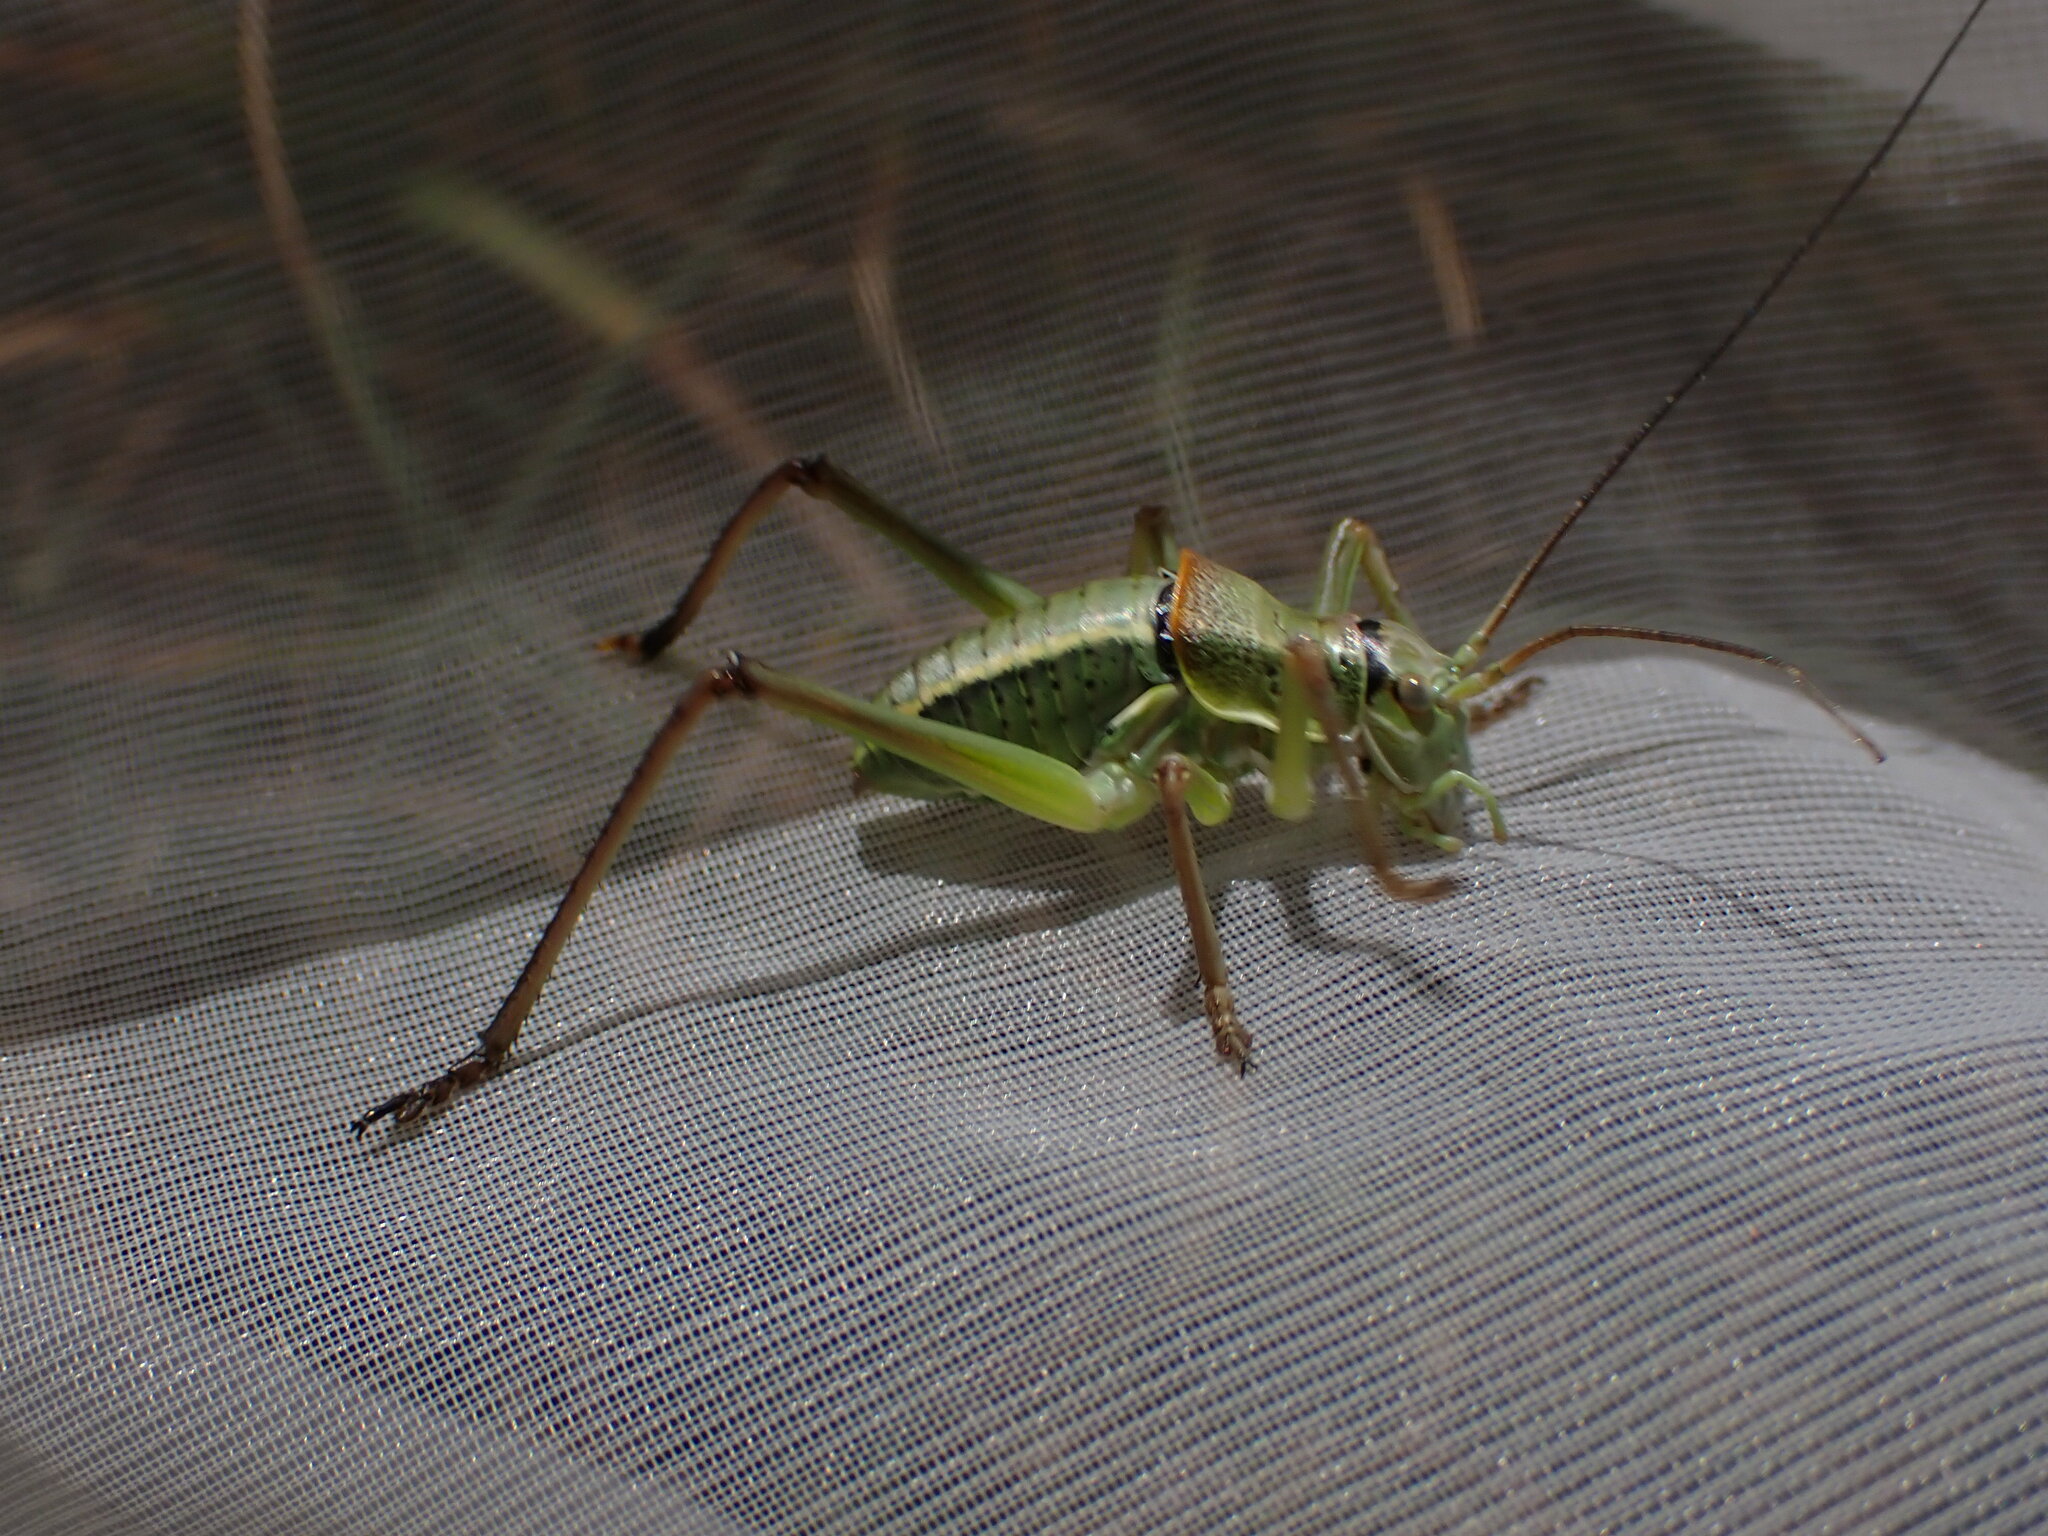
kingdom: Animalia
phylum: Arthropoda
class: Insecta
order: Orthoptera
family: Tettigoniidae
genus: Ephippiger
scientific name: Ephippiger terrestris
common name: Alpine saddle-backed bush-cricket
